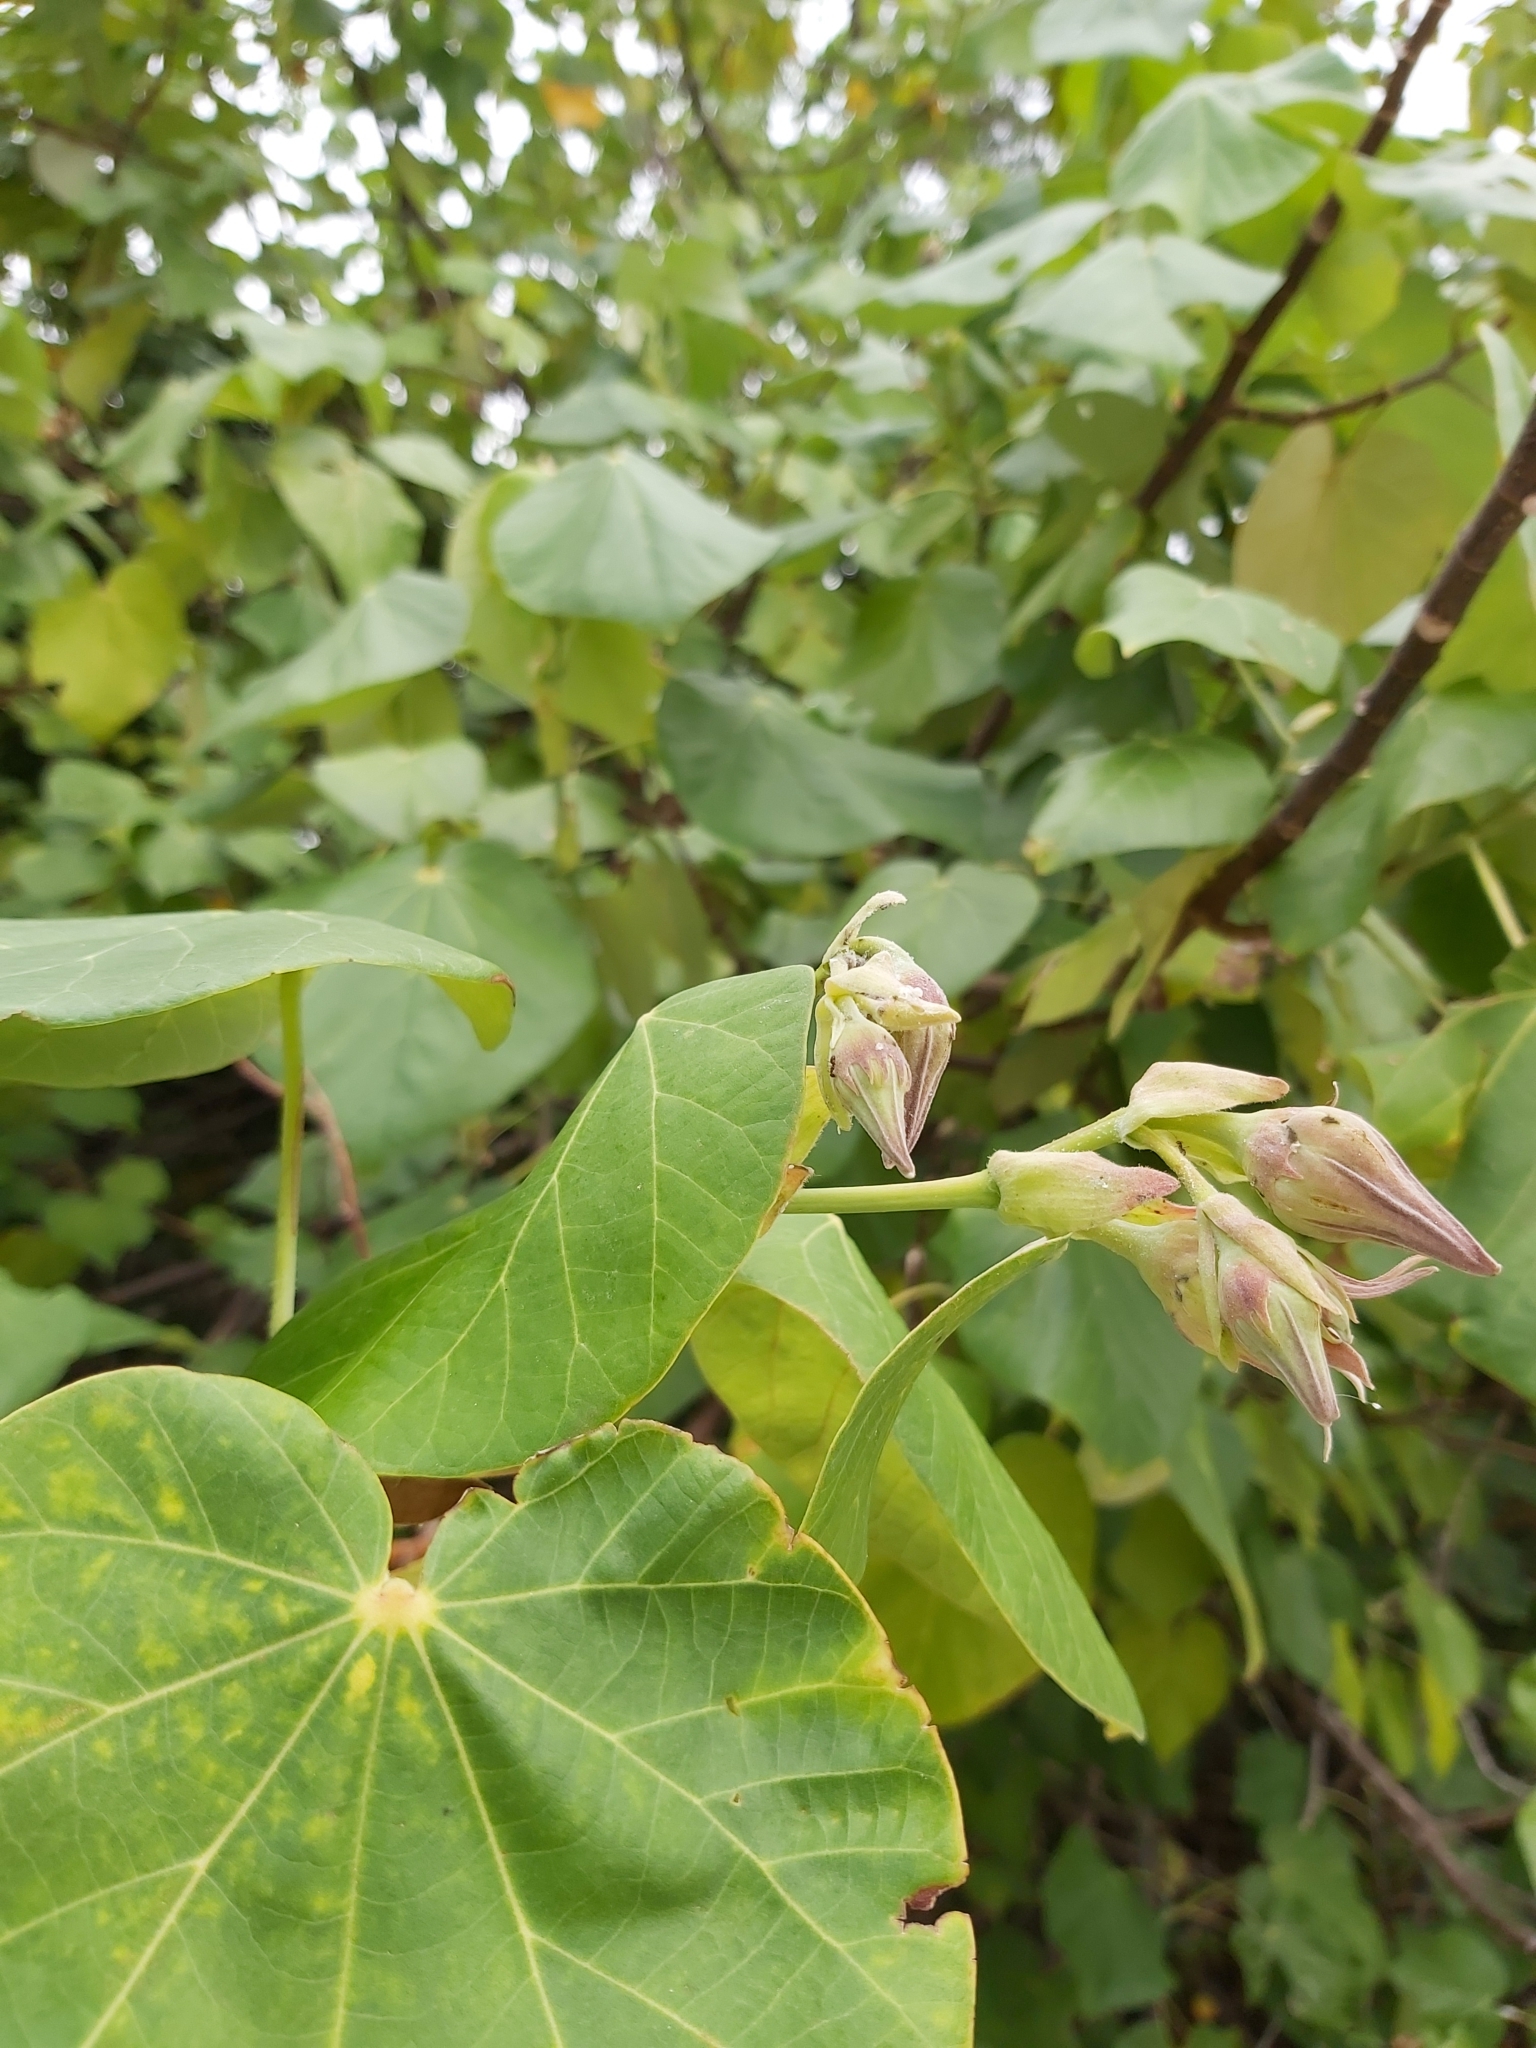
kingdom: Plantae
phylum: Tracheophyta
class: Magnoliopsida
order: Malvales
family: Malvaceae
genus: Talipariti
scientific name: Talipariti tiliaceum
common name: Sea hibiscus
